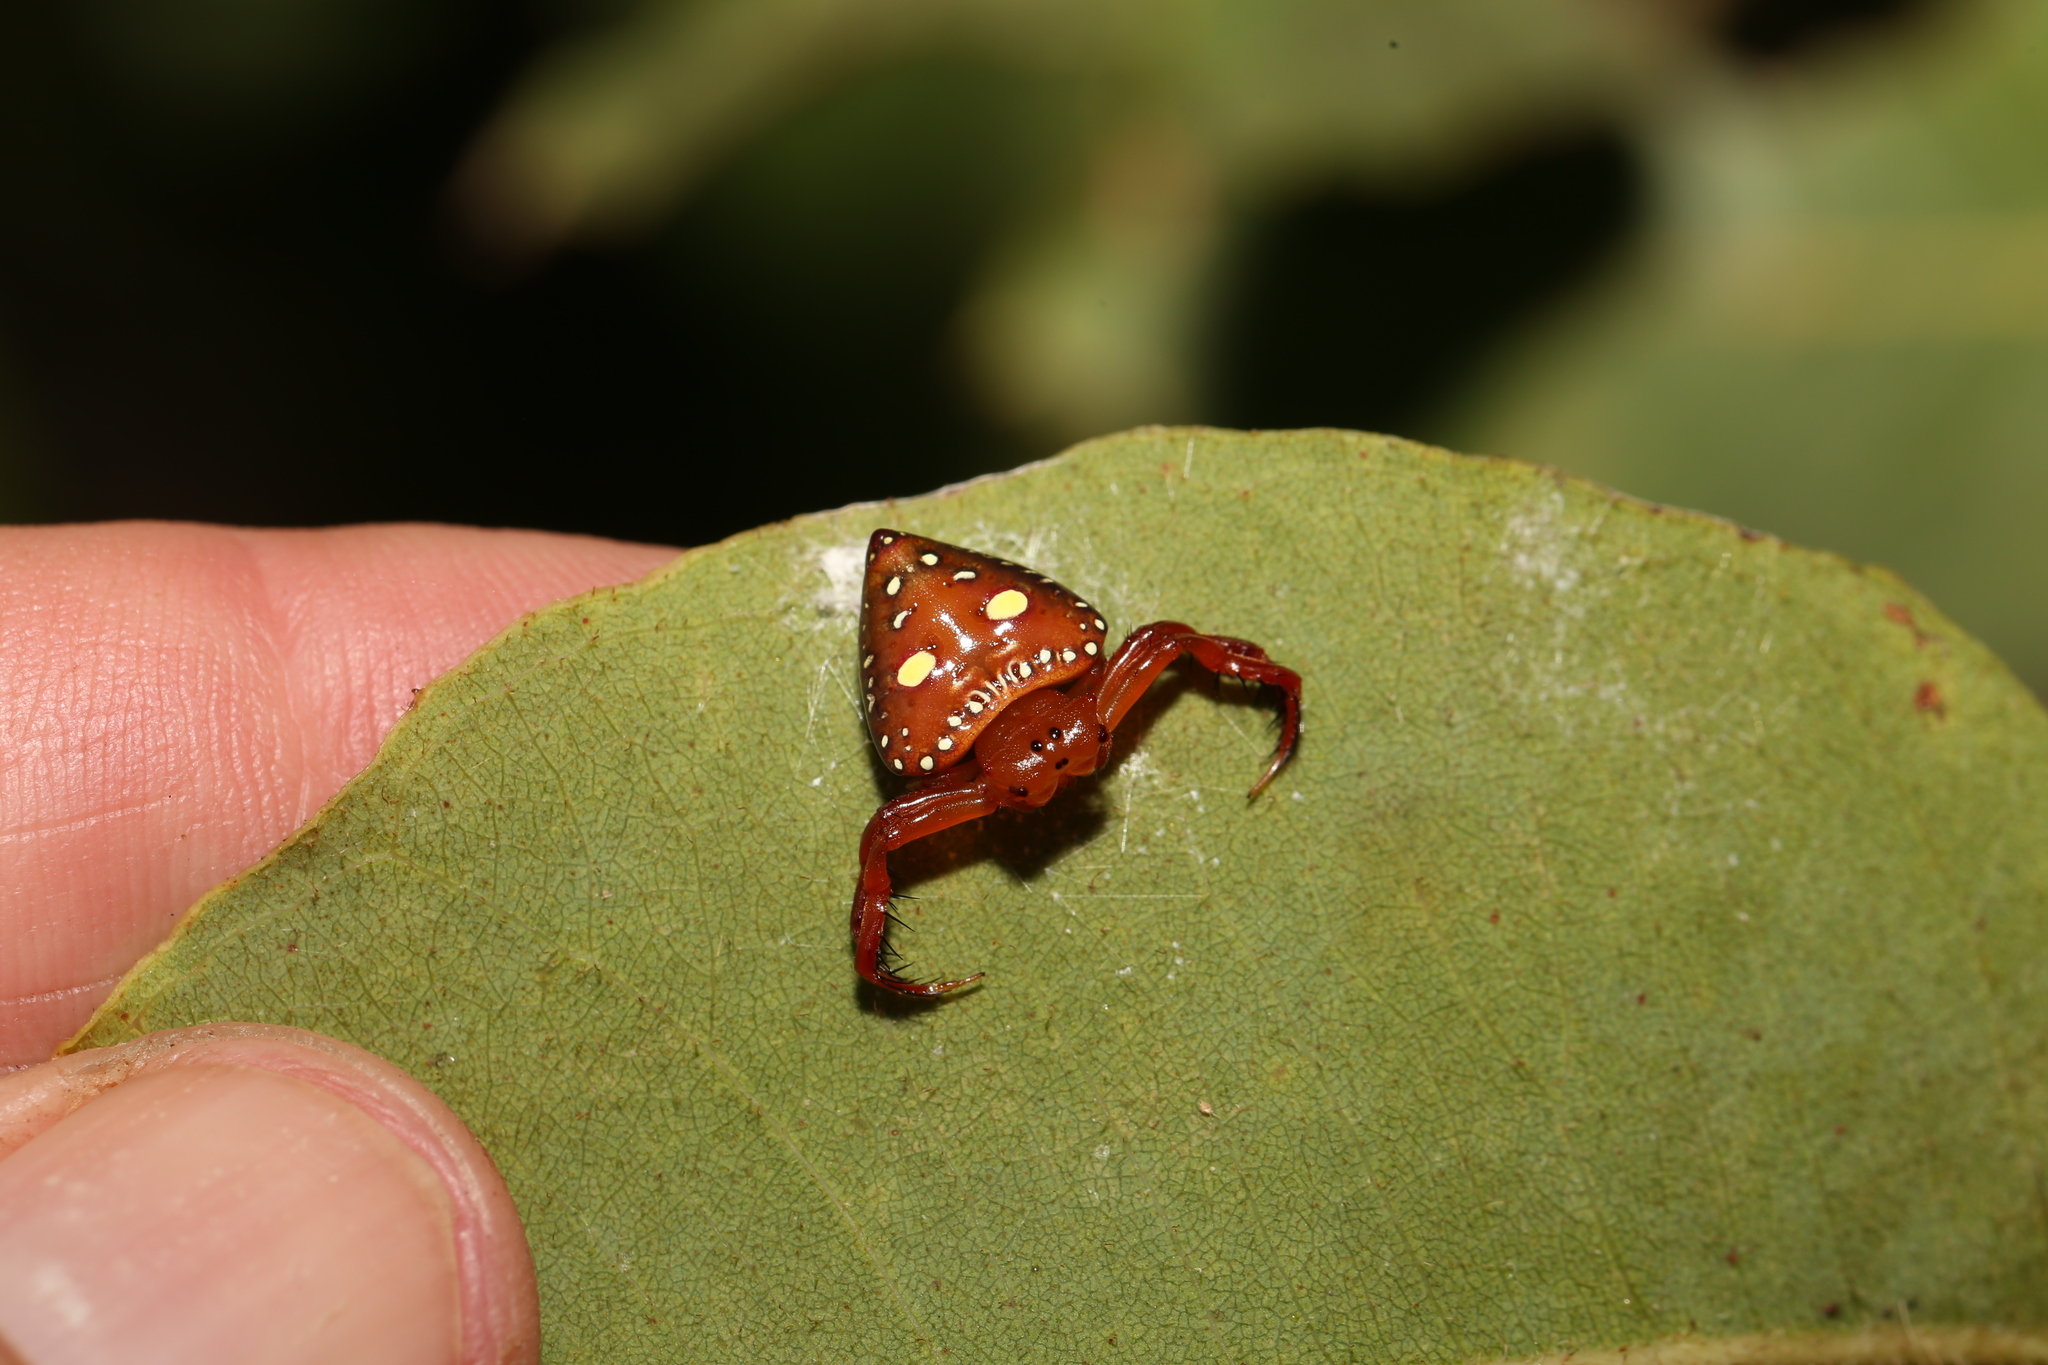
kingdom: Animalia
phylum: Arthropoda
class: Arachnida
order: Araneae
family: Arkyidae
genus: Arkys
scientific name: Arkys lancearius
